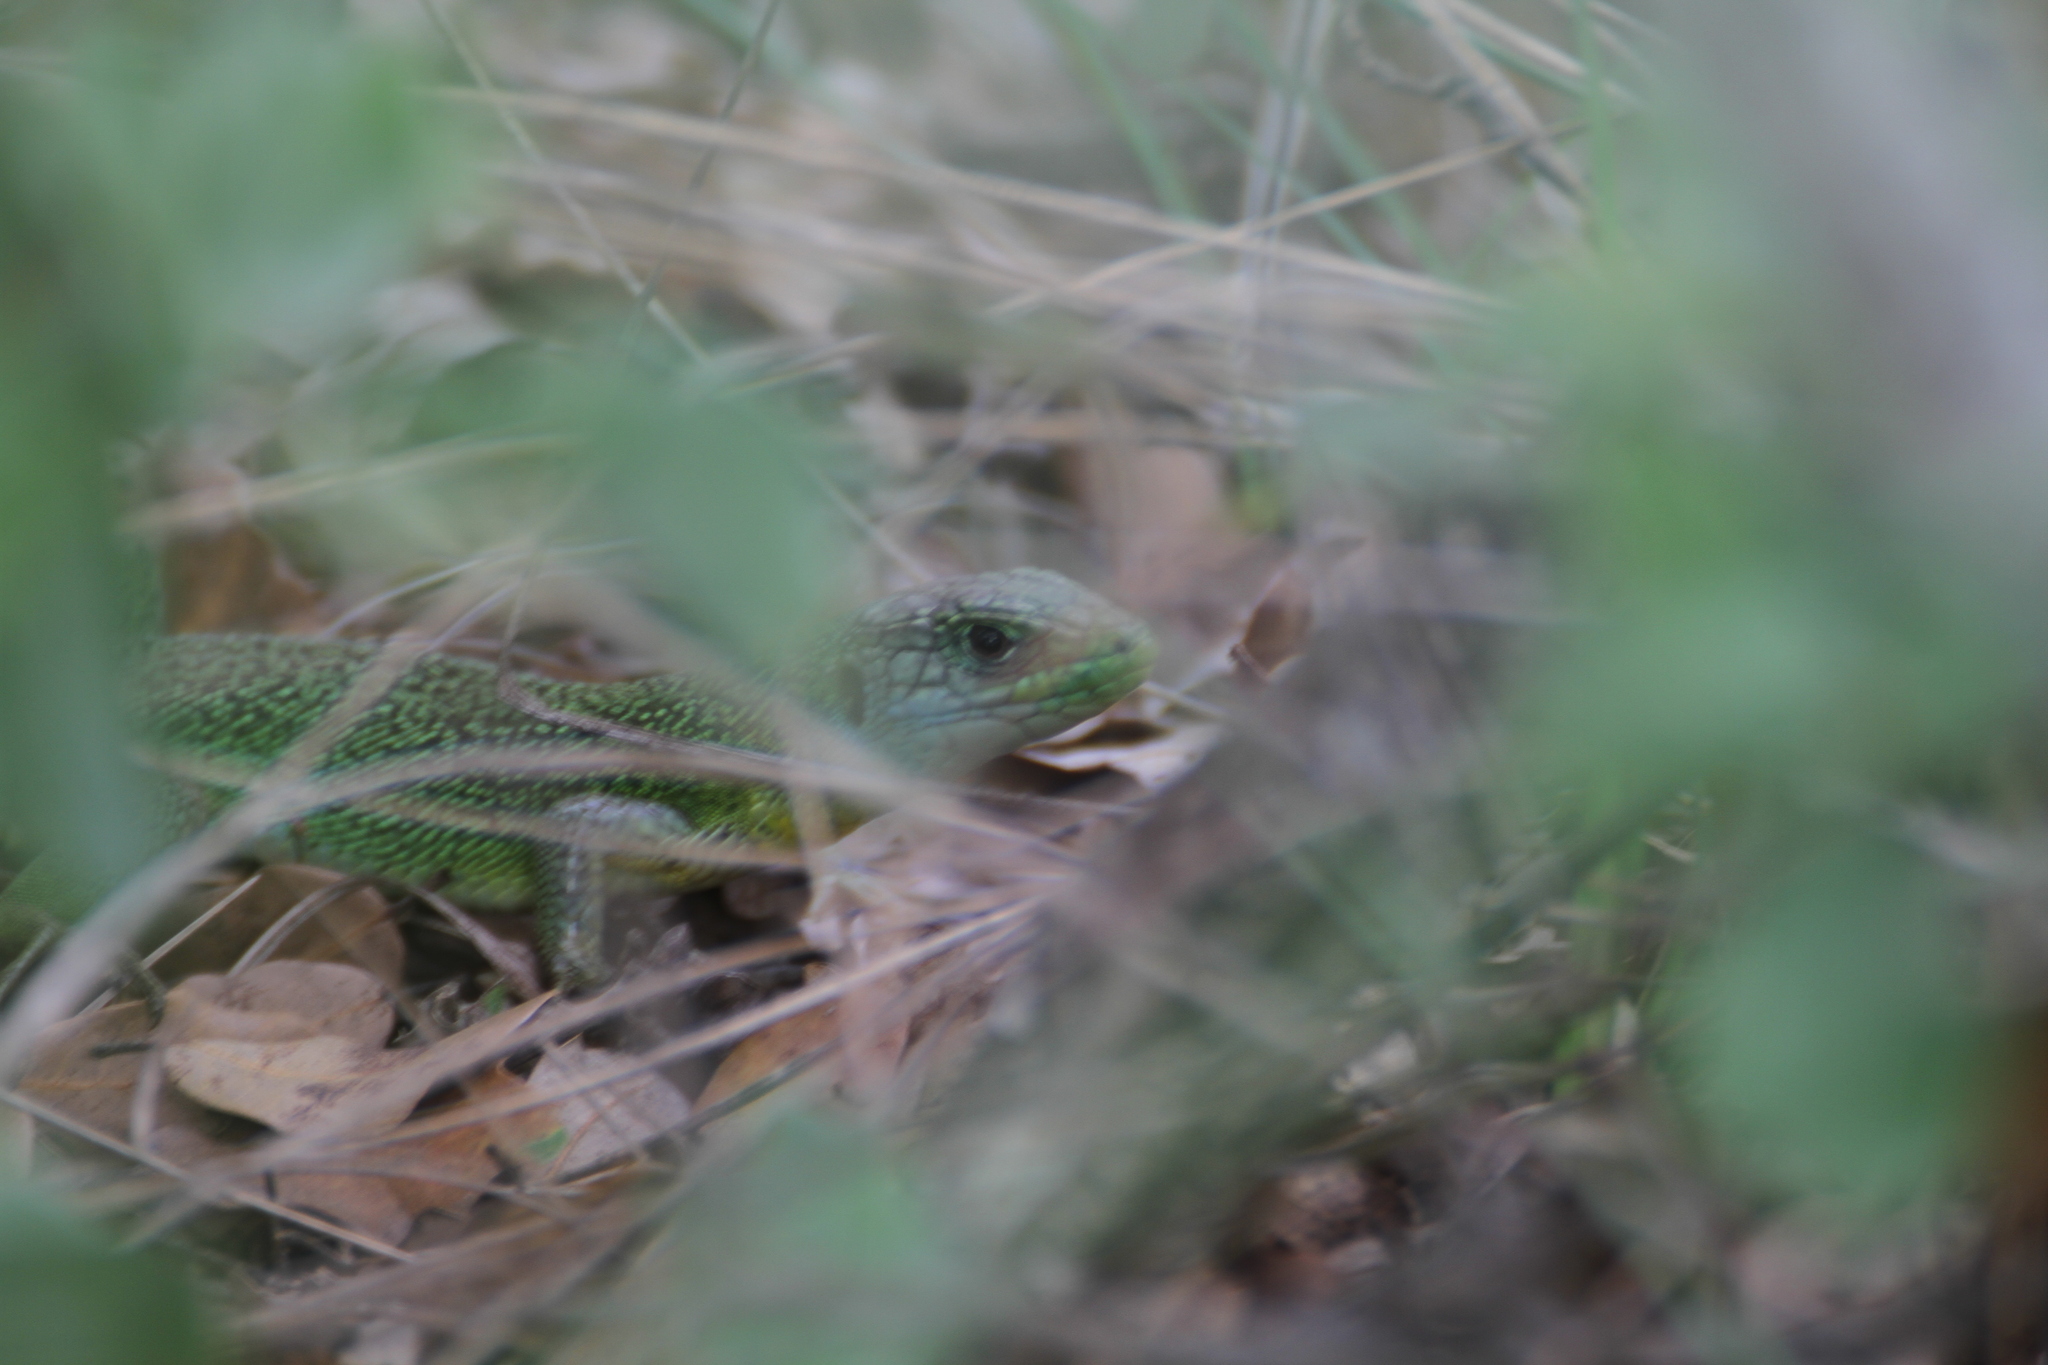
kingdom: Animalia
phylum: Chordata
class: Squamata
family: Lacertidae
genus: Lacerta
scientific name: Lacerta bilineata
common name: Western green lizard
